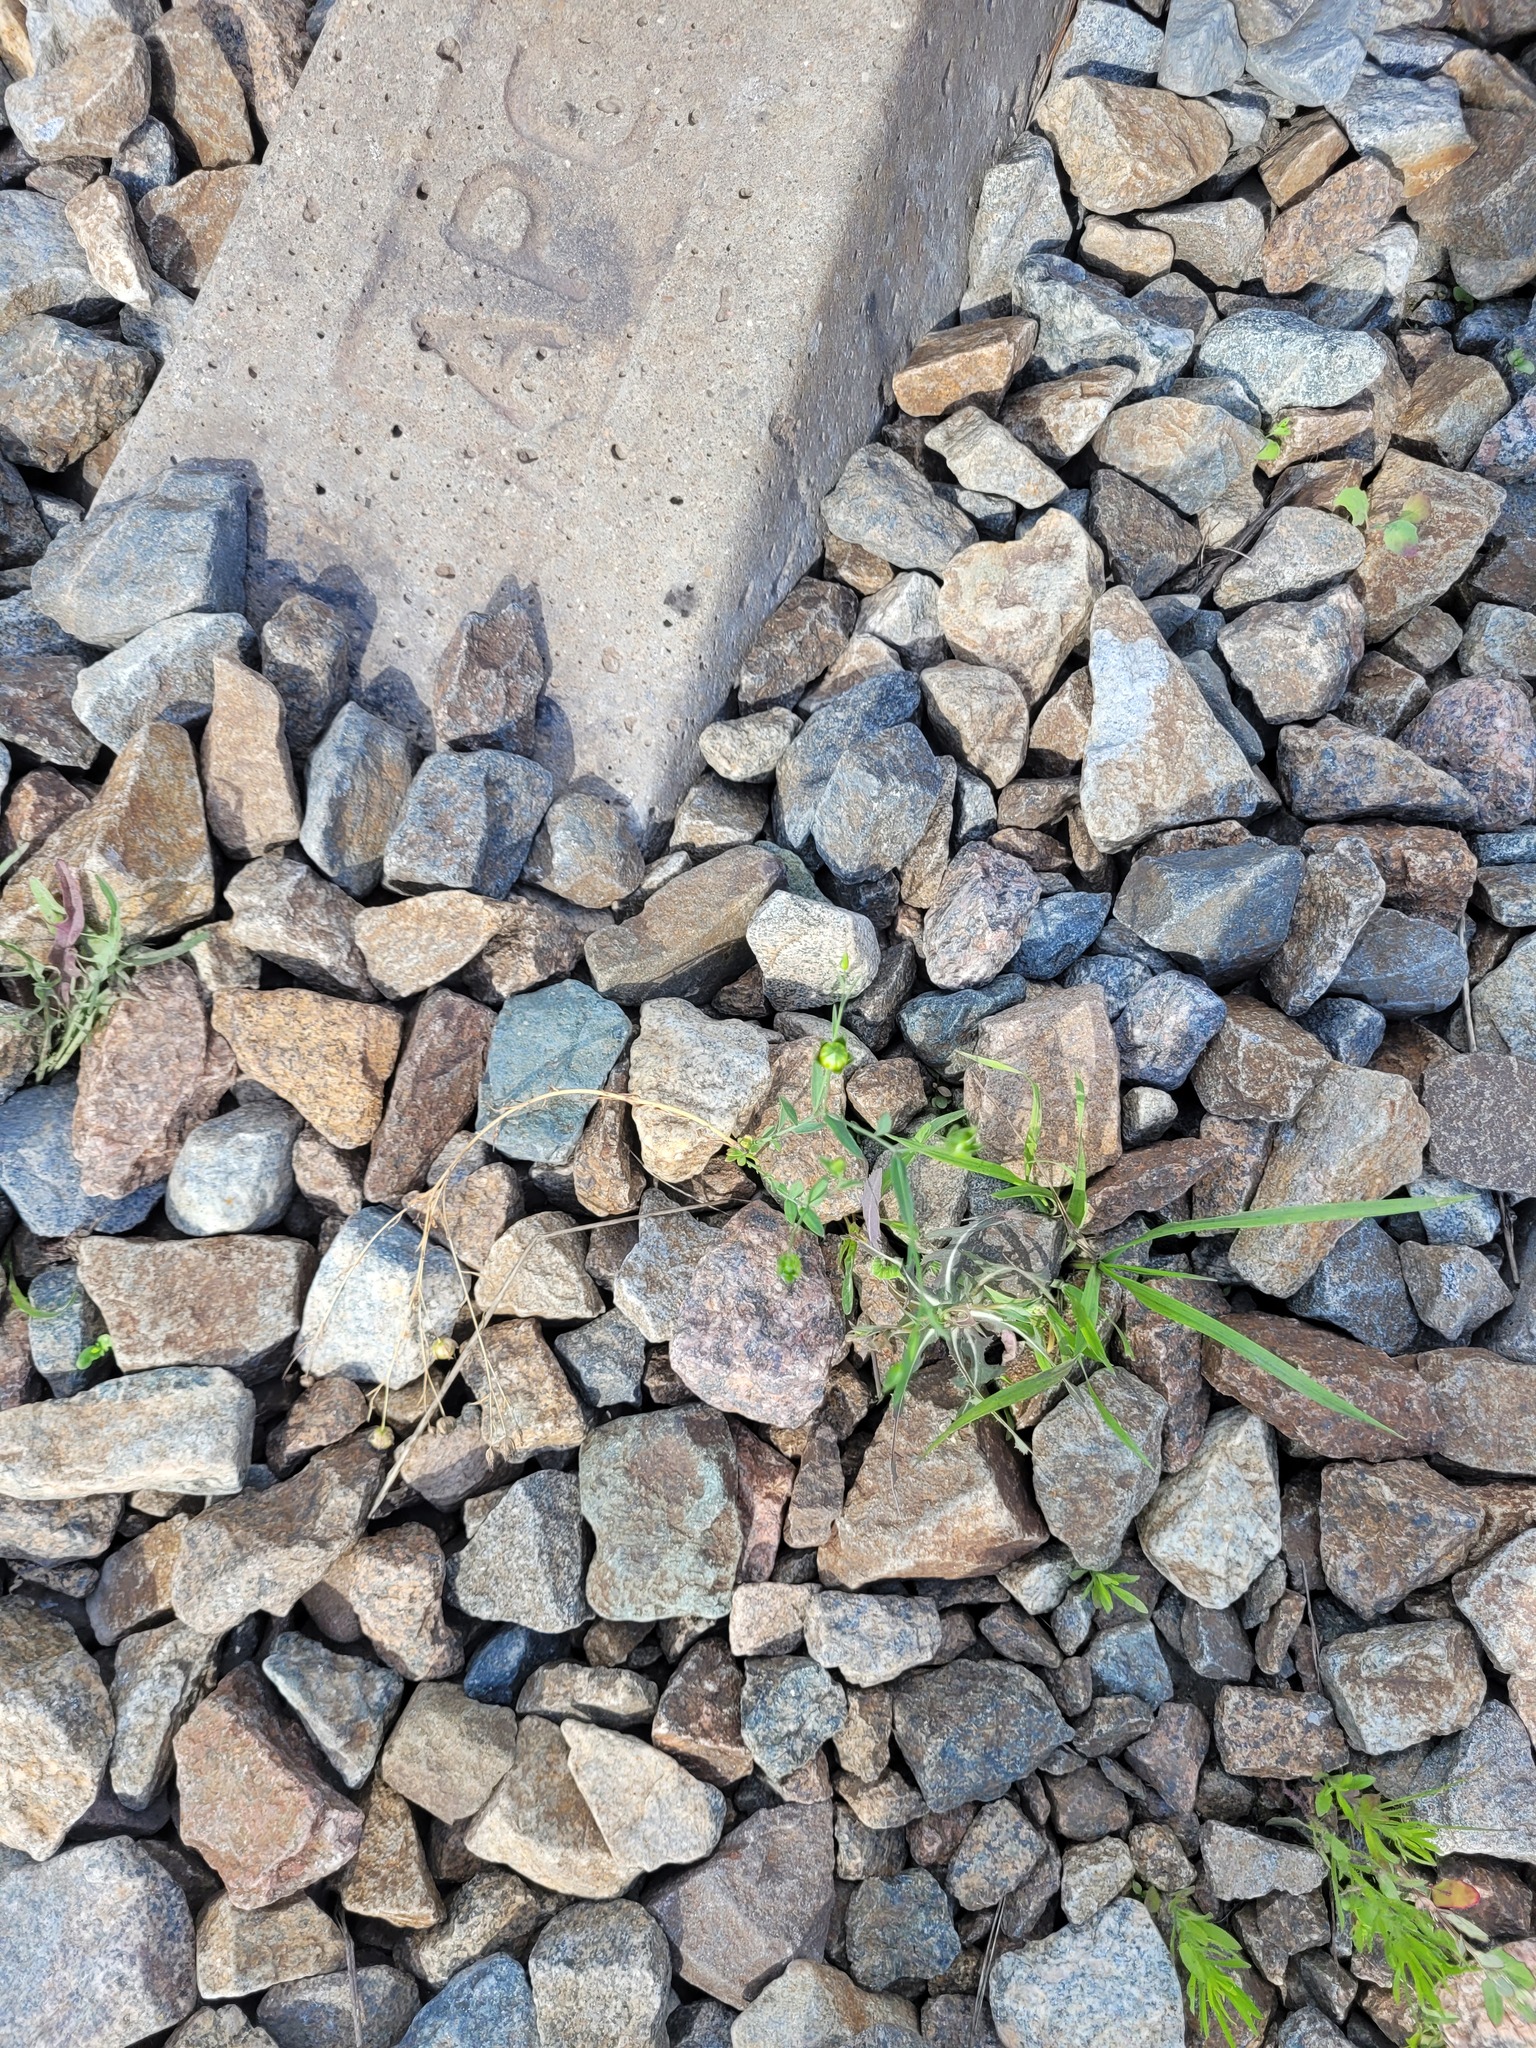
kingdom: Plantae
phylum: Tracheophyta
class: Magnoliopsida
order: Malpighiales
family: Linaceae
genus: Linum
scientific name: Linum usitatissimum
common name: Flax
